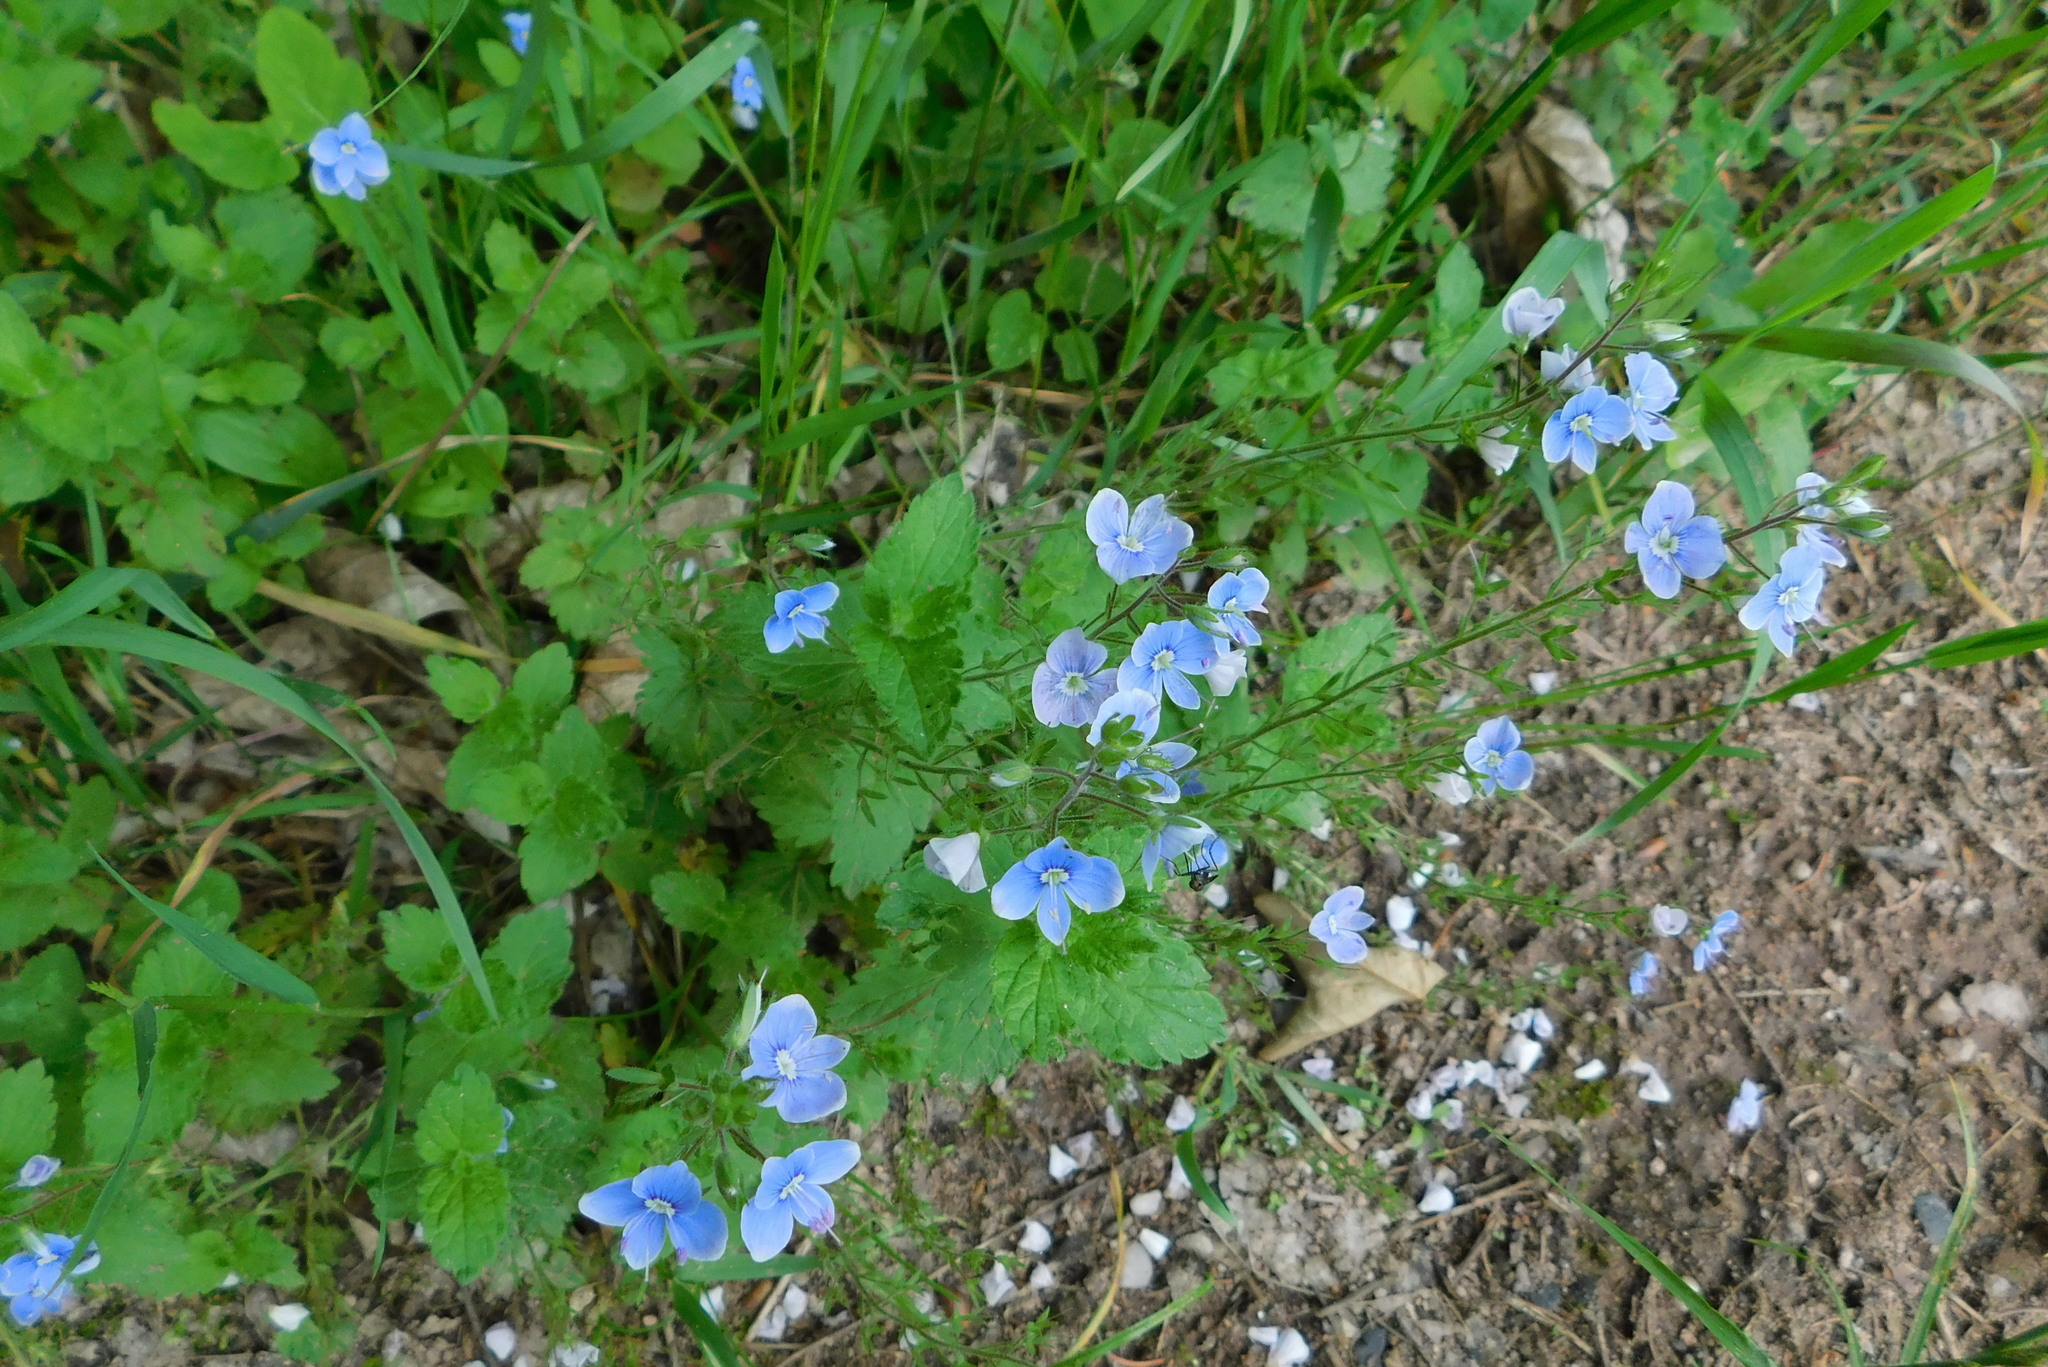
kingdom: Plantae
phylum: Tracheophyta
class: Magnoliopsida
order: Lamiales
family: Plantaginaceae
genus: Veronica
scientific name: Veronica chamaedrys
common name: Germander speedwell
